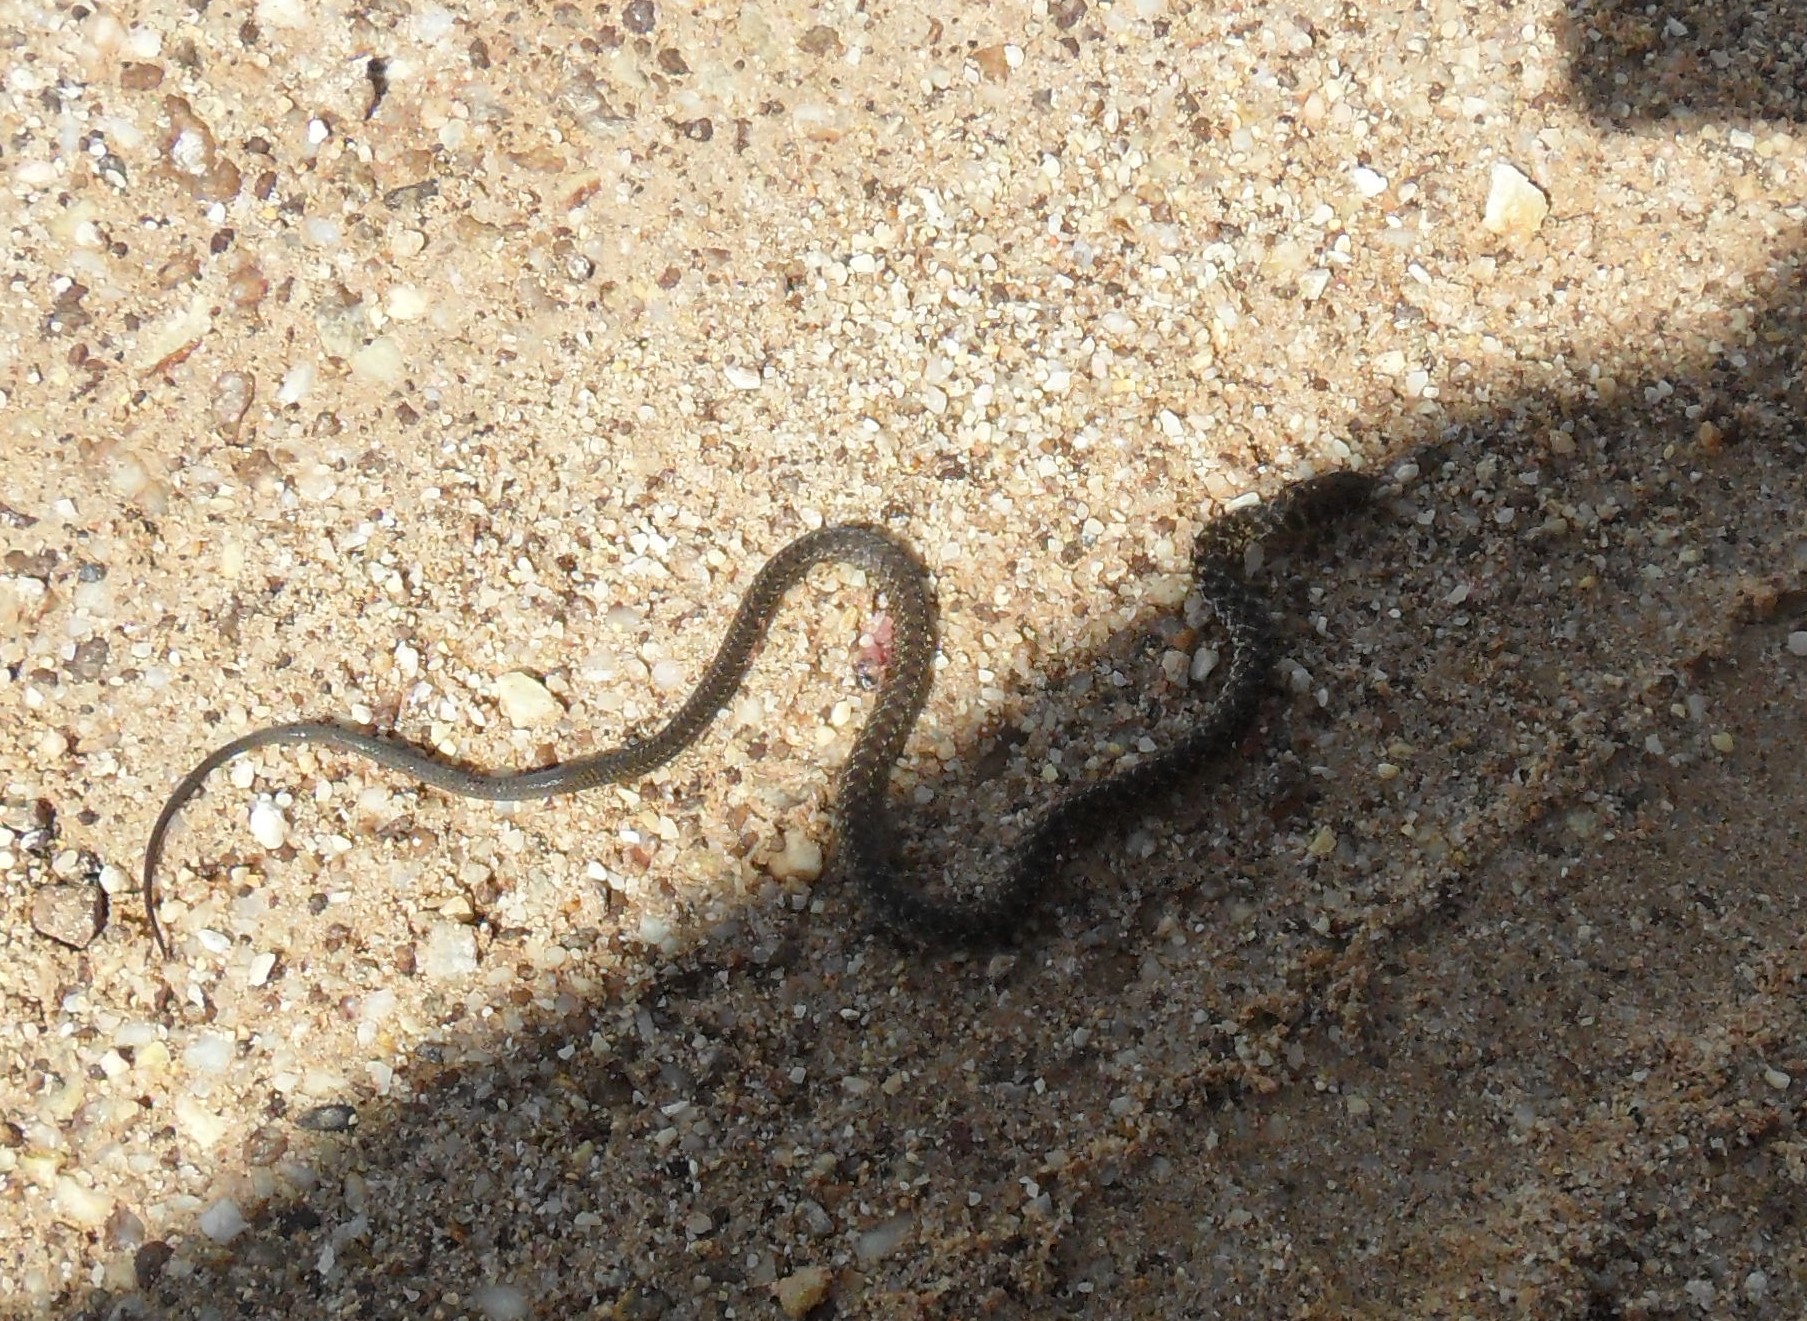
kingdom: Animalia
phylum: Chordata
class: Squamata
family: Colubridae
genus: Erythrolamprus
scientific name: Erythrolamprus almadensis
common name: Almaden ground snake
